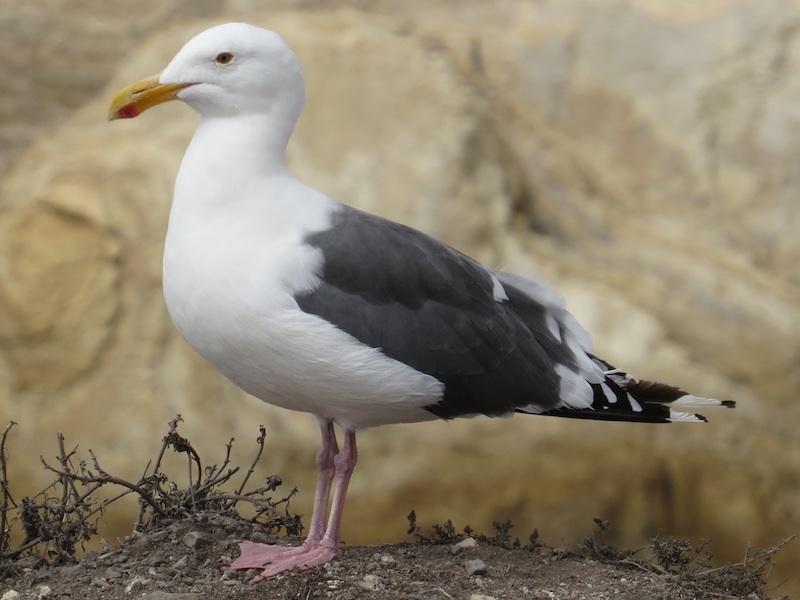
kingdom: Animalia
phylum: Chordata
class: Aves
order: Charadriiformes
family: Laridae
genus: Larus
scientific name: Larus occidentalis
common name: Western gull
